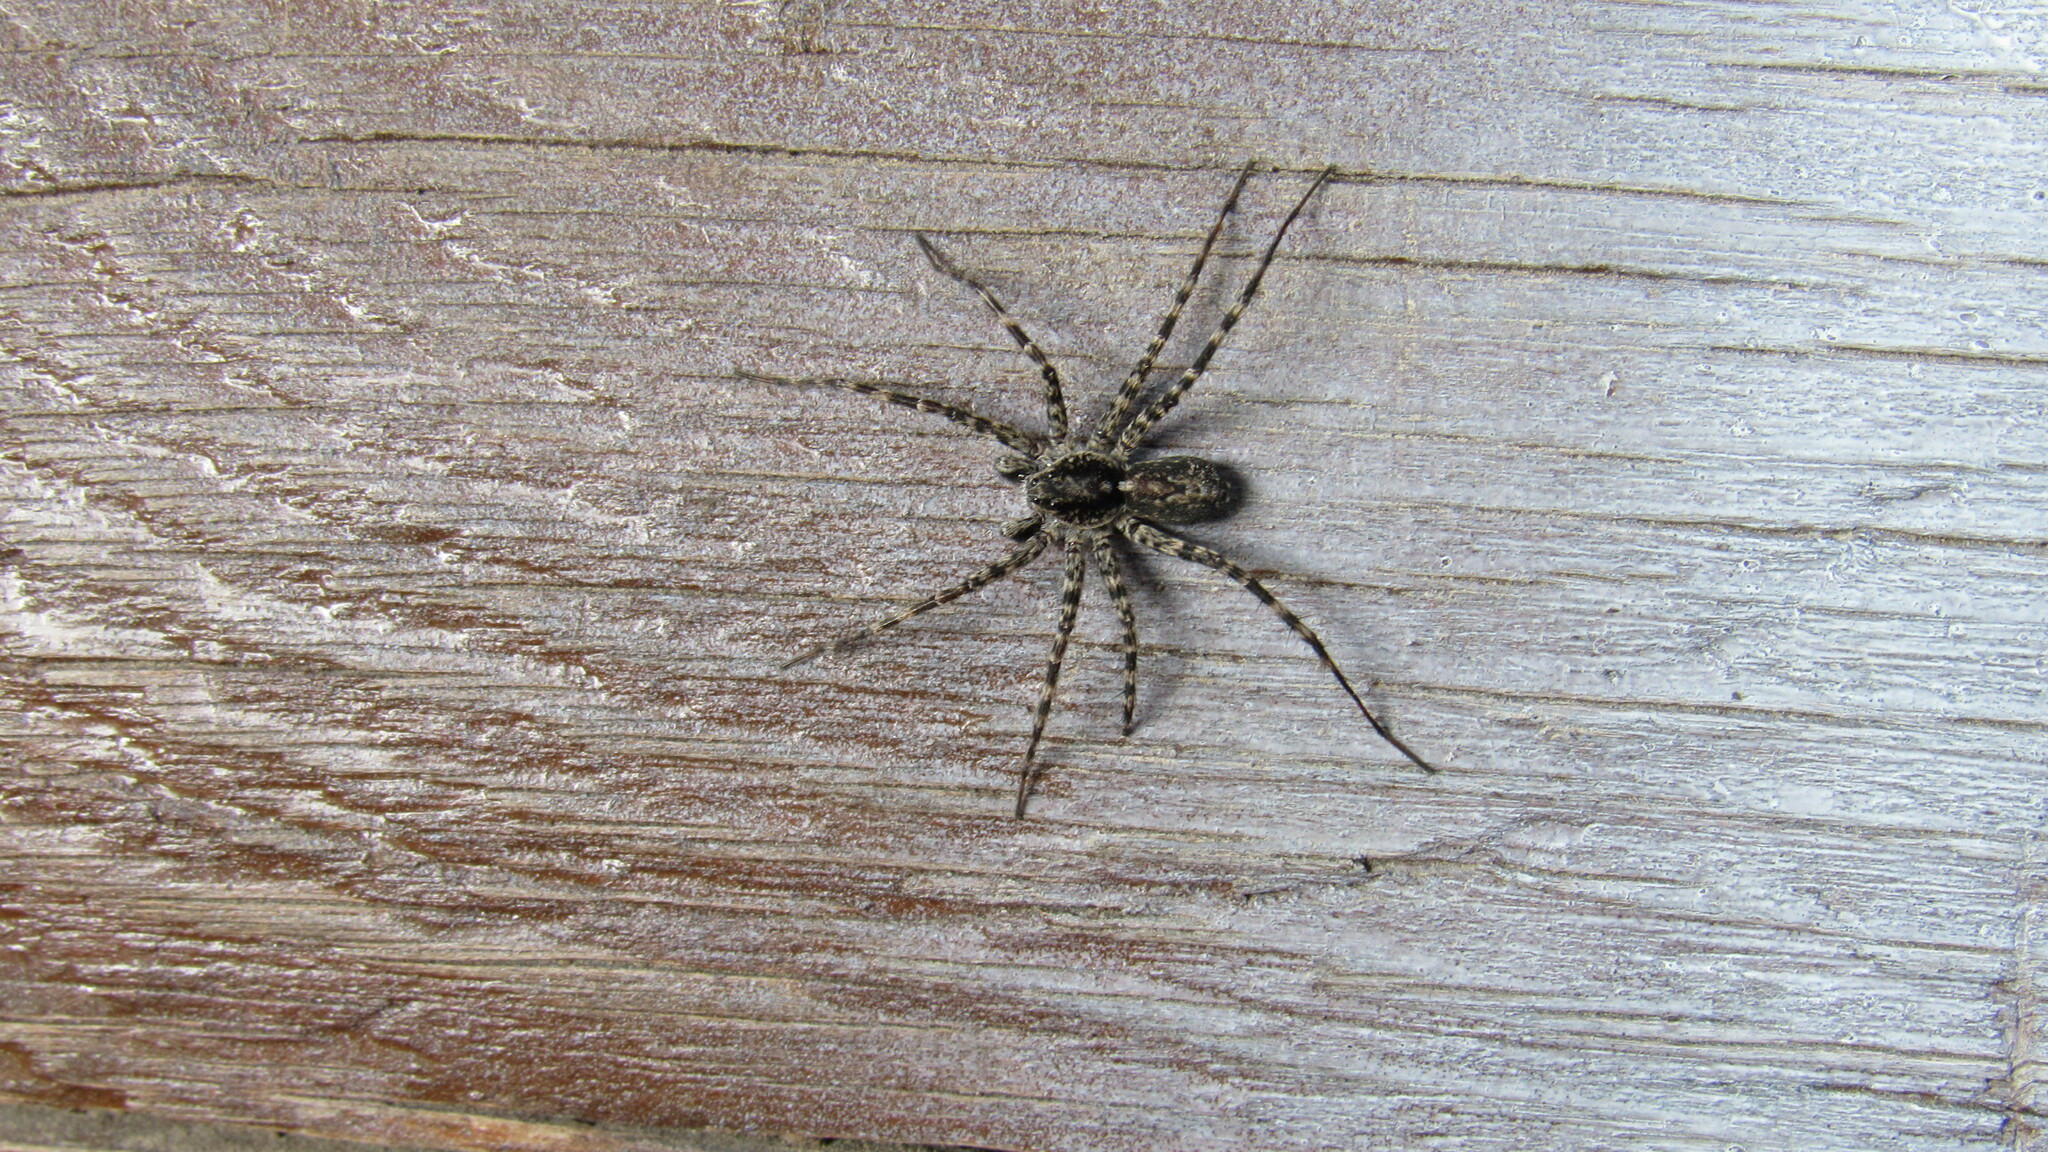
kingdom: Animalia
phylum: Arthropoda
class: Arachnida
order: Araneae
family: Lycosidae
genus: Acantholycosa
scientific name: Acantholycosa lignaria
